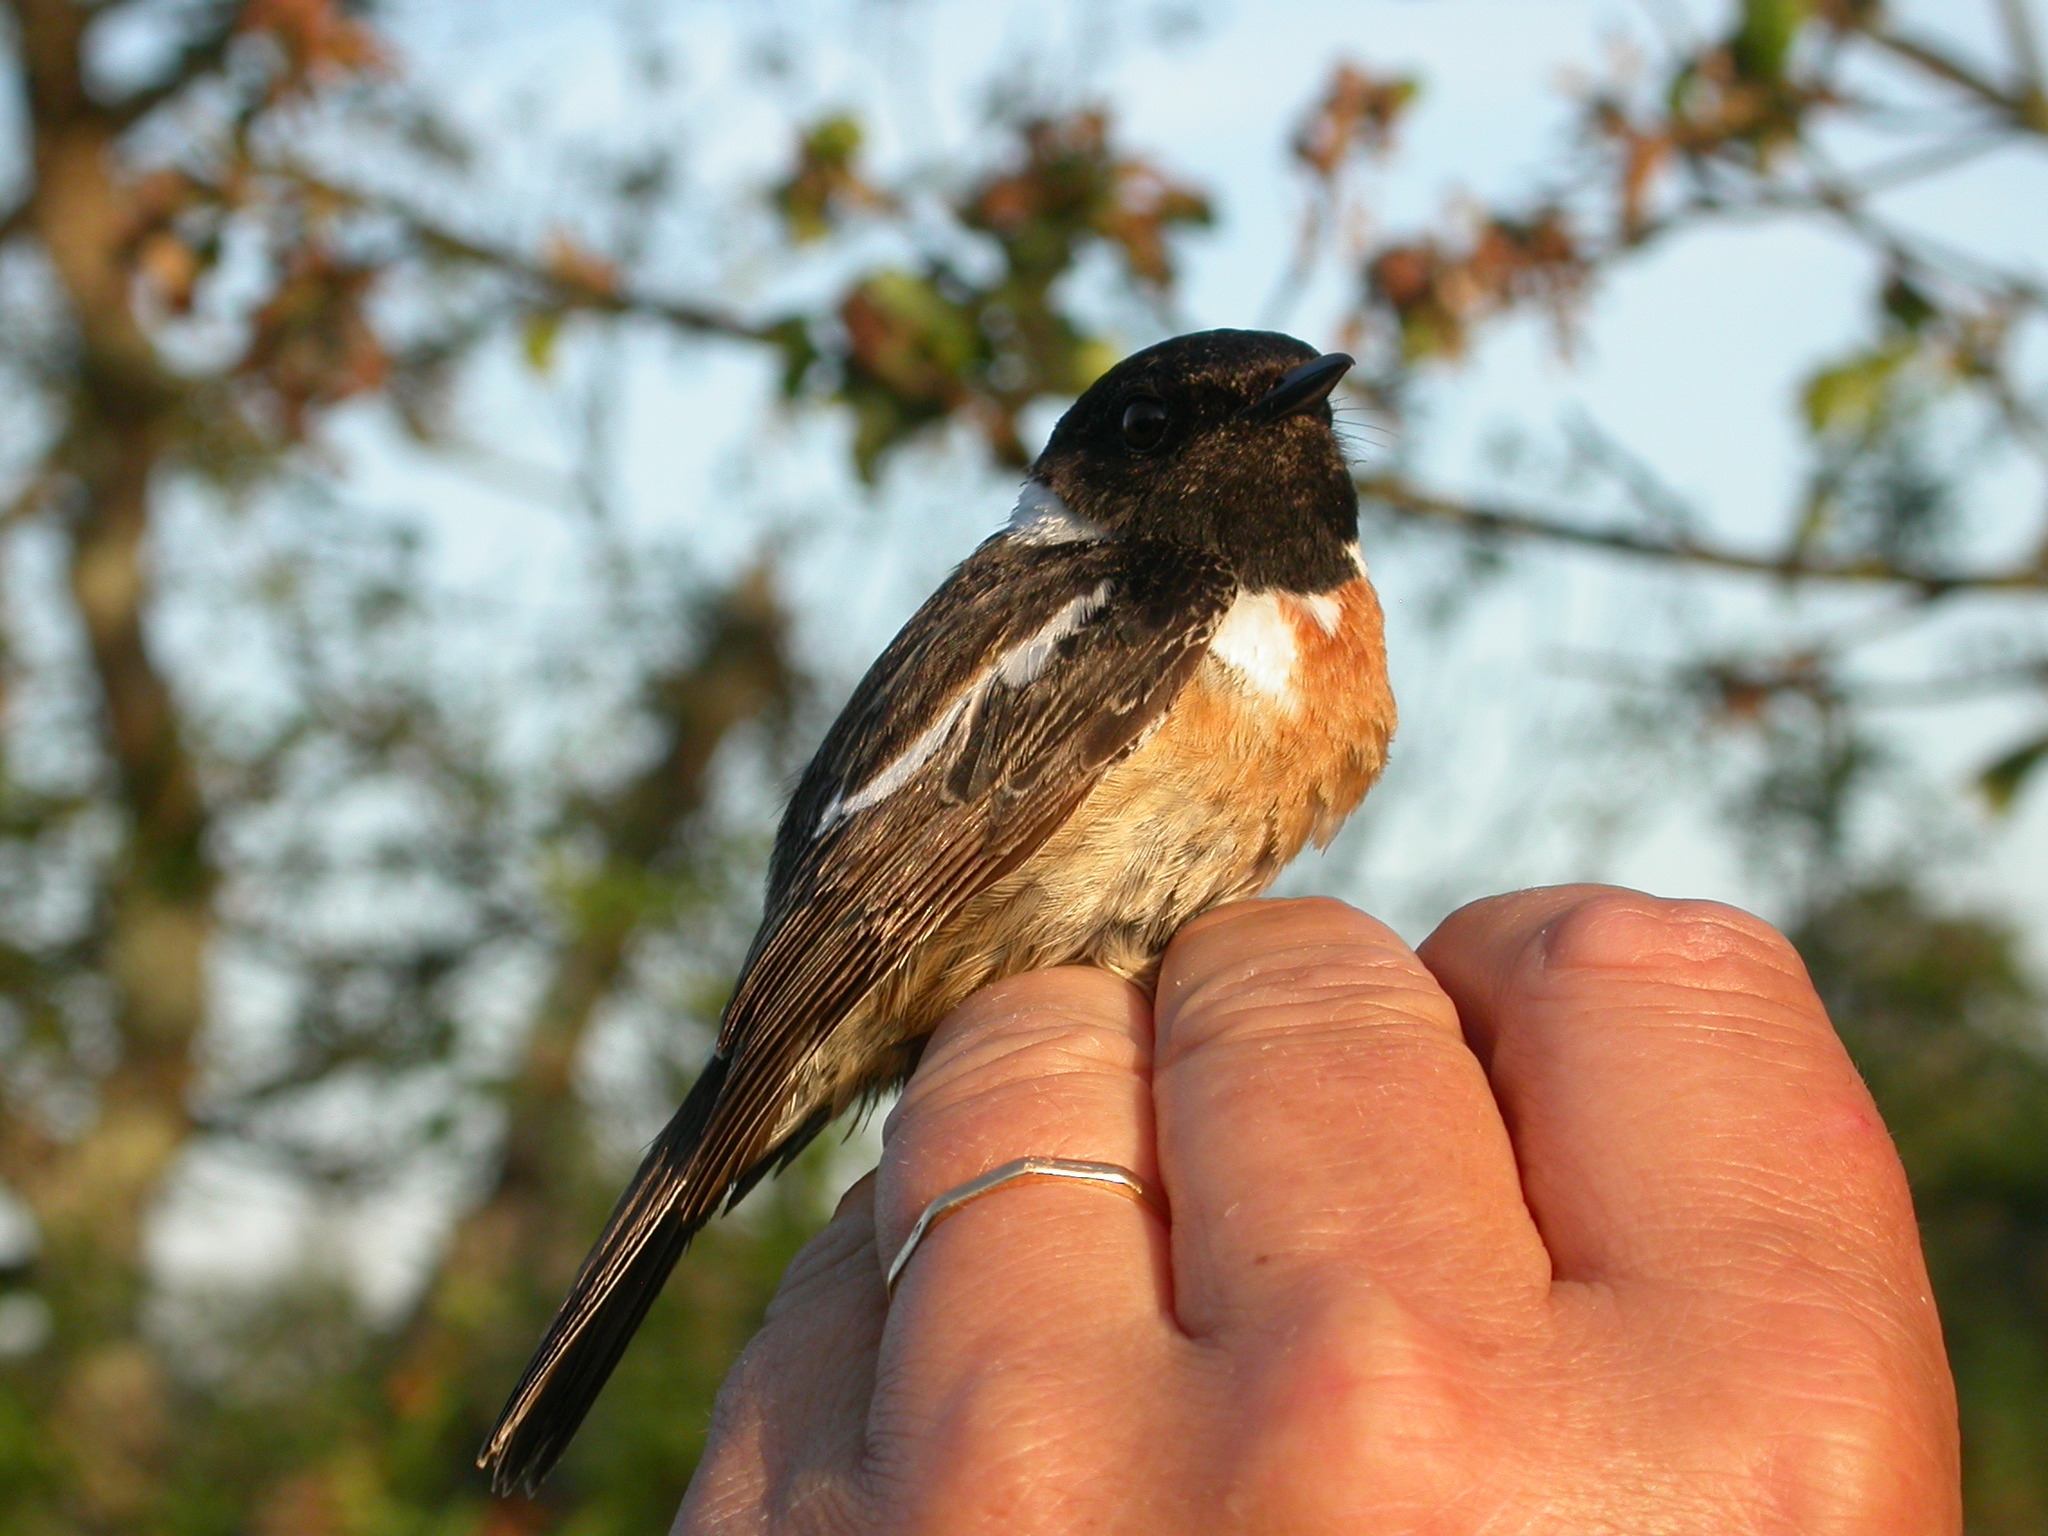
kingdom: Animalia
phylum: Chordata
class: Aves
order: Passeriformes
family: Muscicapidae
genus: Saxicola
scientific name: Saxicola rubicola
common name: European stonechat
